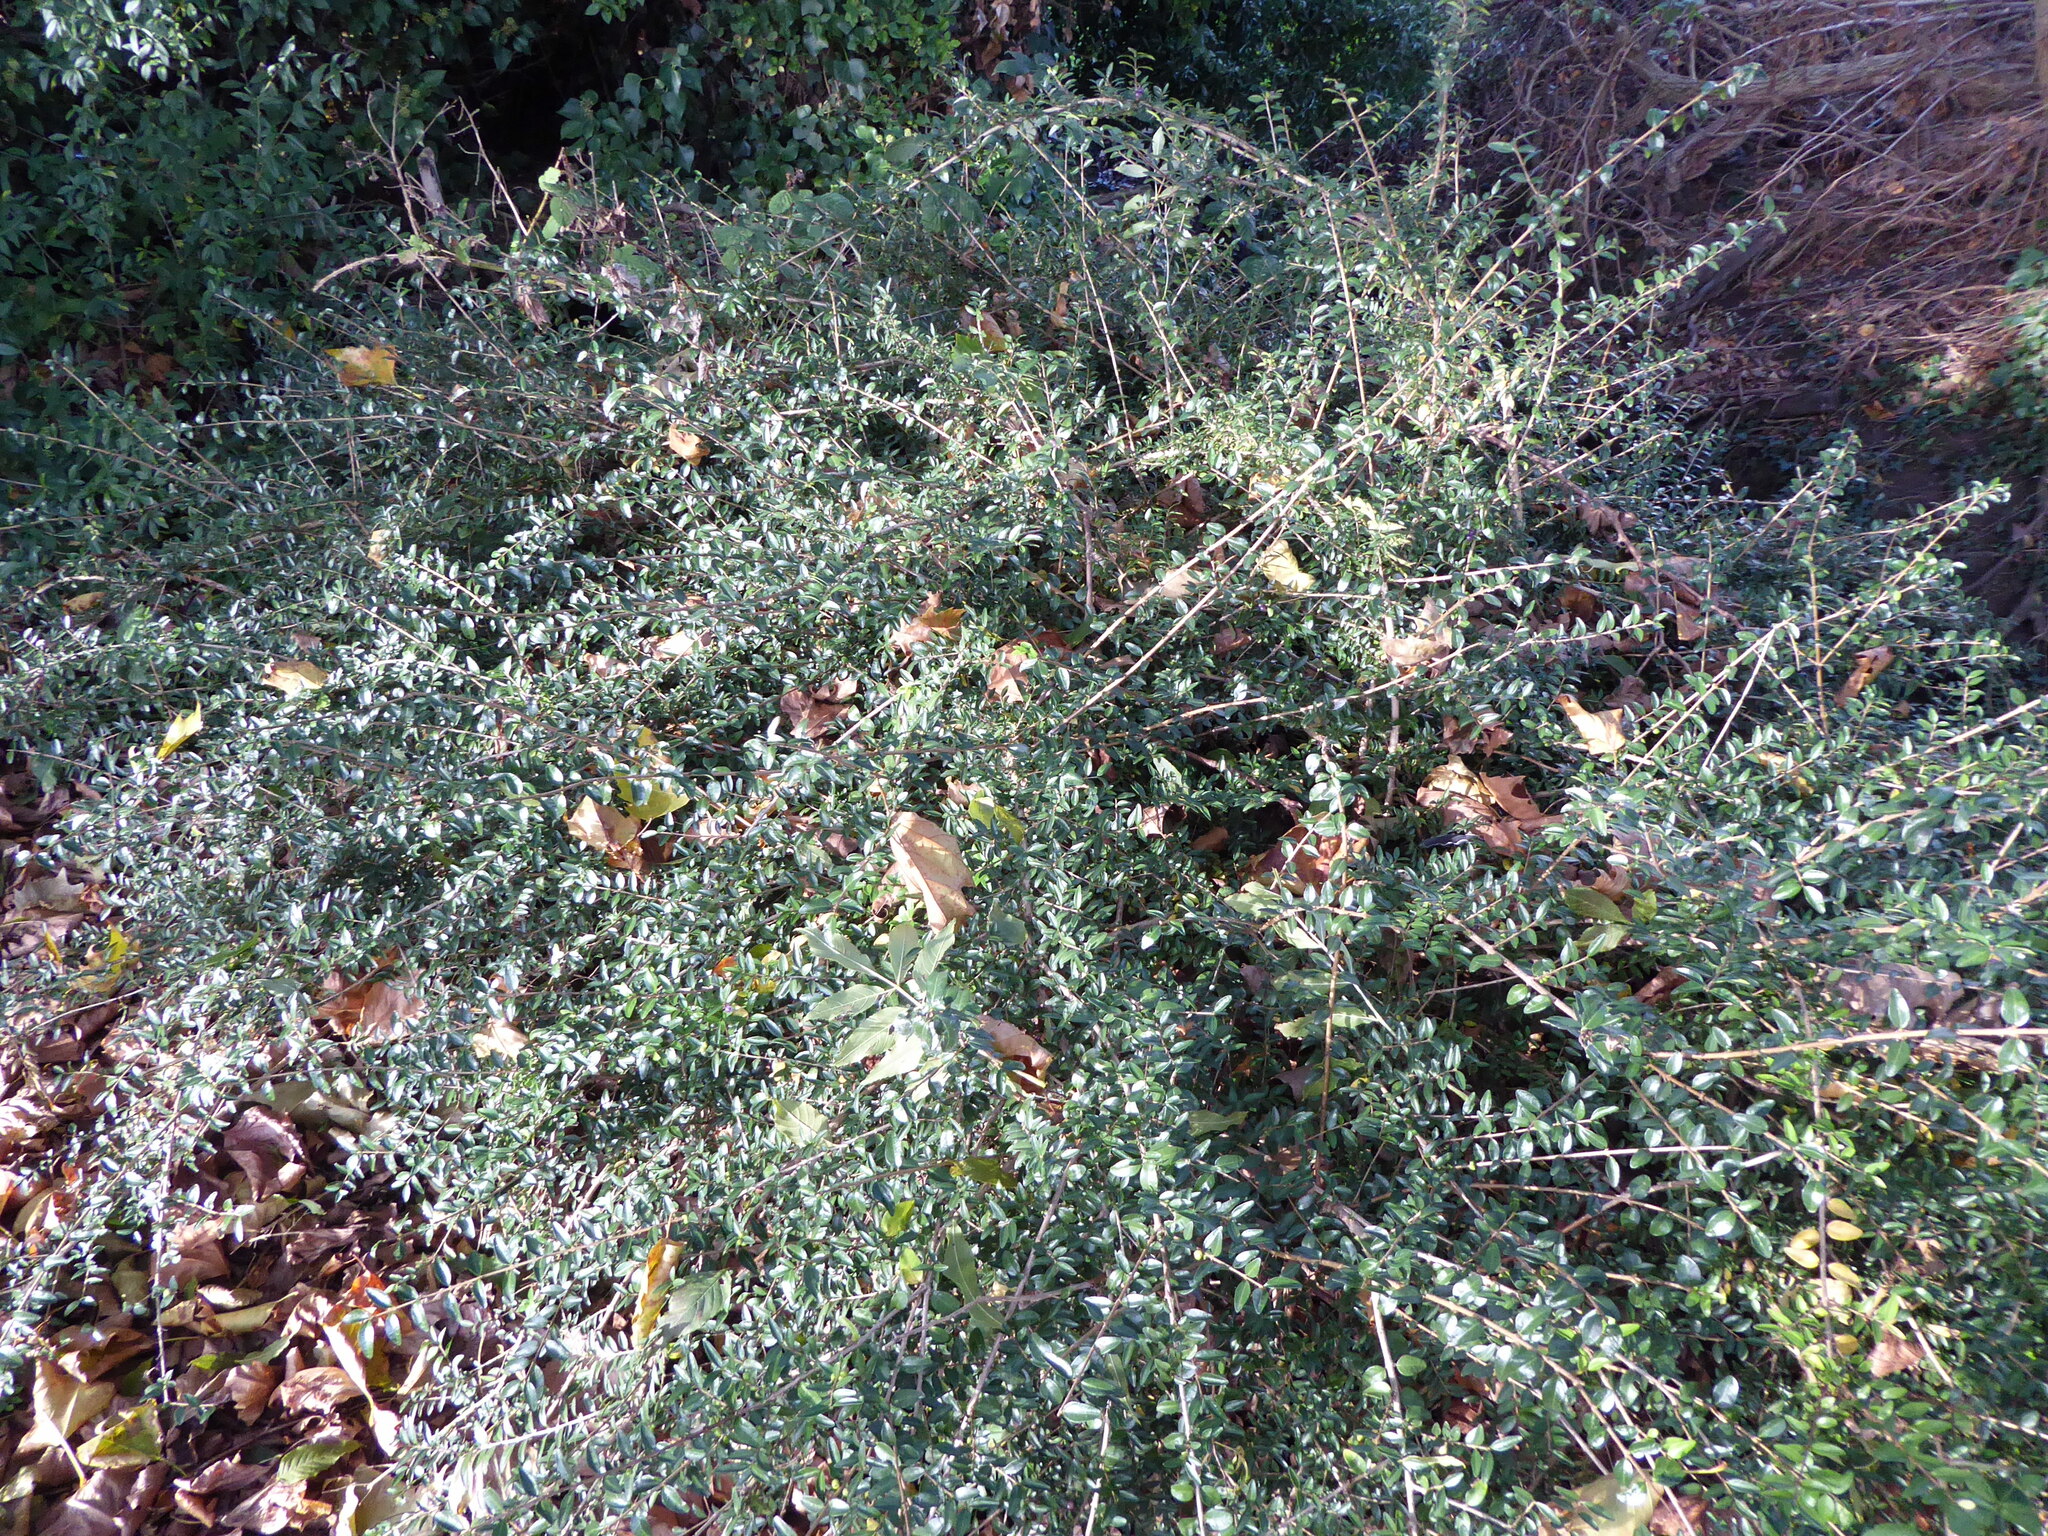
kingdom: Plantae
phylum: Tracheophyta
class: Magnoliopsida
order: Dipsacales
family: Caprifoliaceae
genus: Lonicera
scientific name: Lonicera ligustrina
